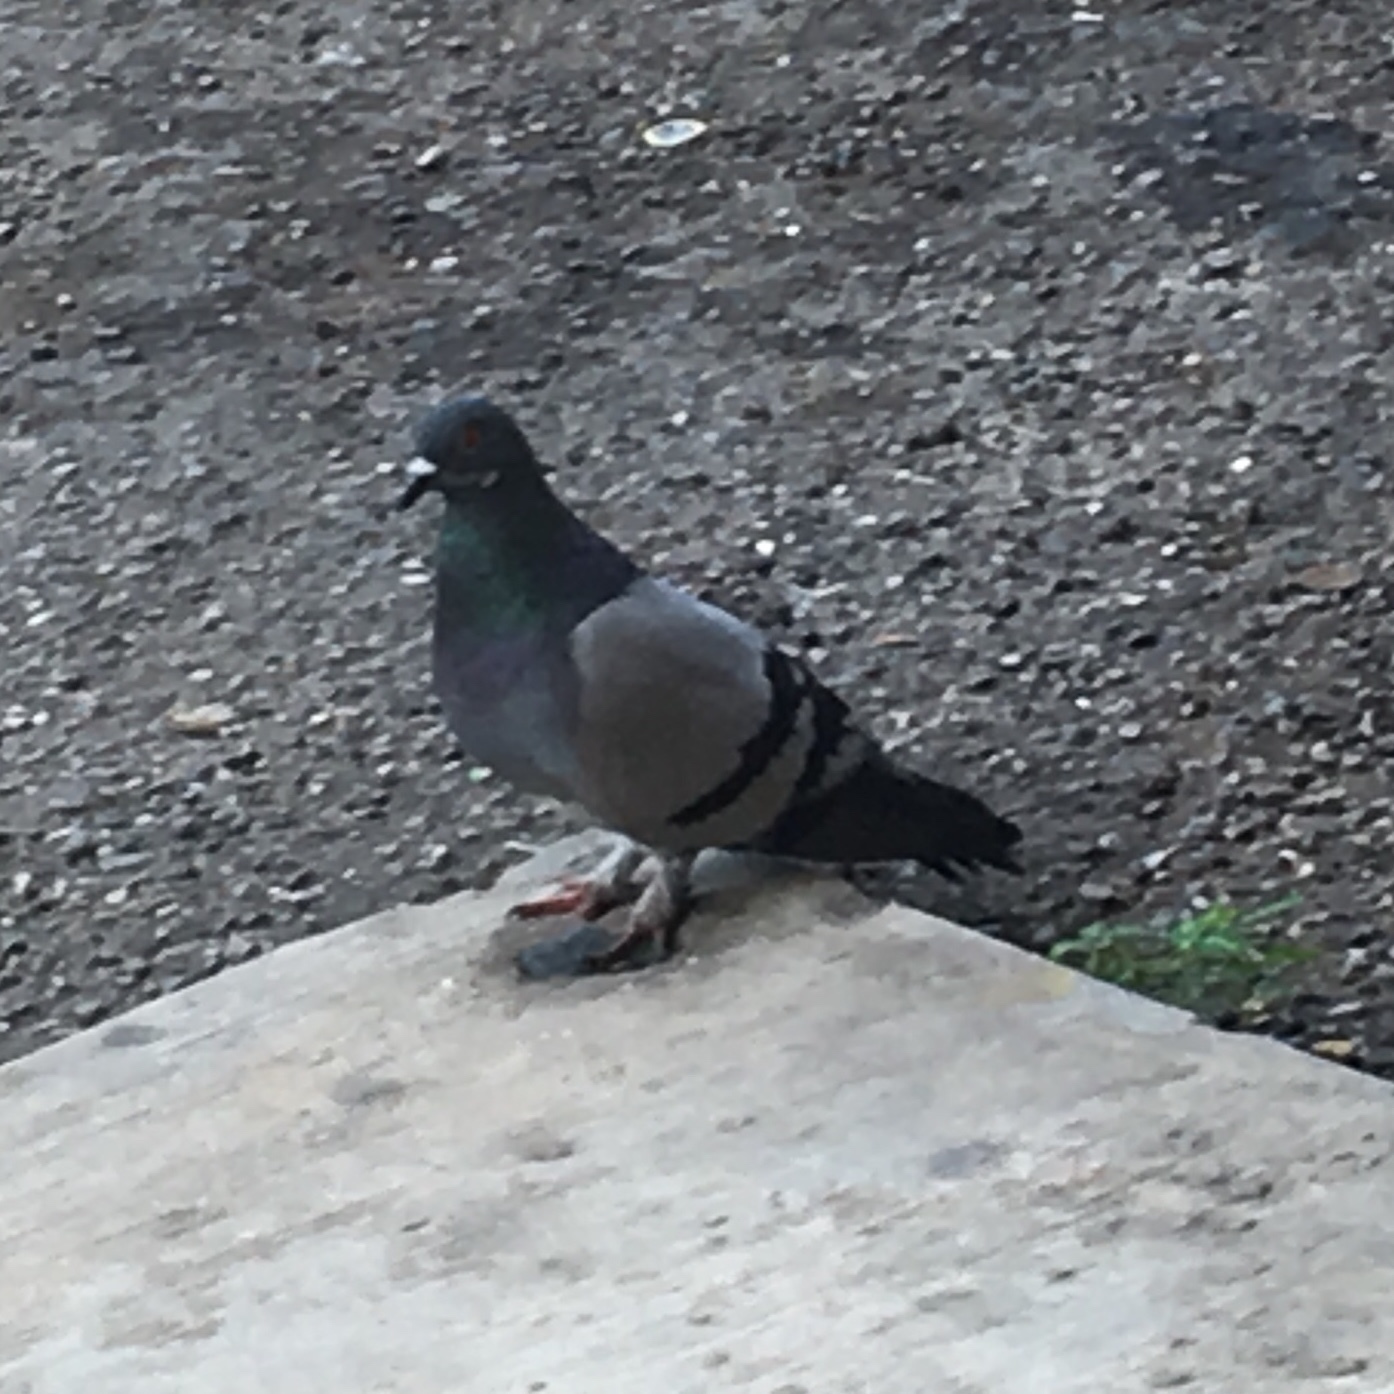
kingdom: Animalia
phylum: Chordata
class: Aves
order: Columbiformes
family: Columbidae
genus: Columba
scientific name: Columba livia
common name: Rock pigeon
